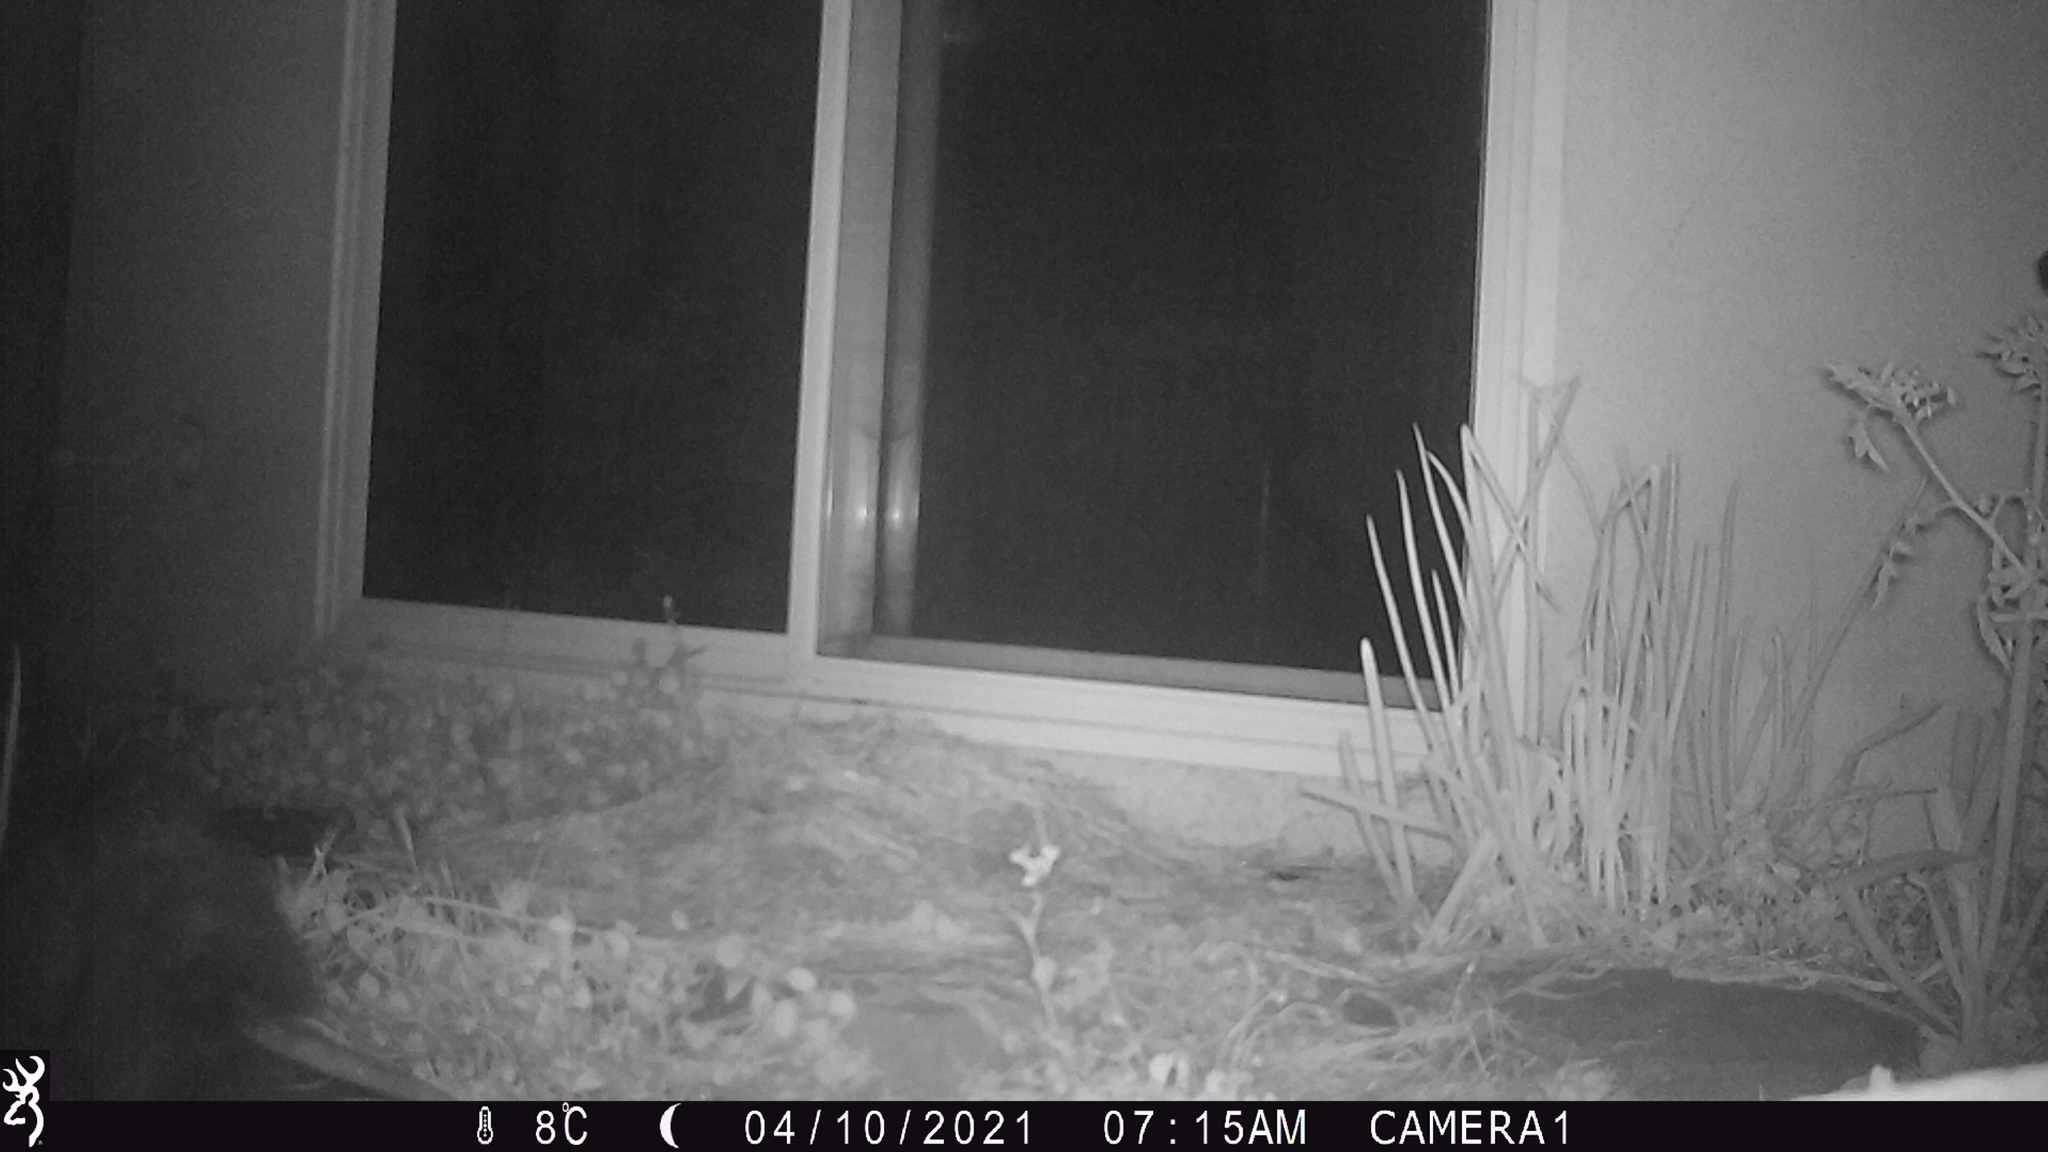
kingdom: Animalia
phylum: Chordata
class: Mammalia
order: Didelphimorphia
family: Didelphidae
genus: Didelphis
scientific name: Didelphis virginiana
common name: Virginia opossum
